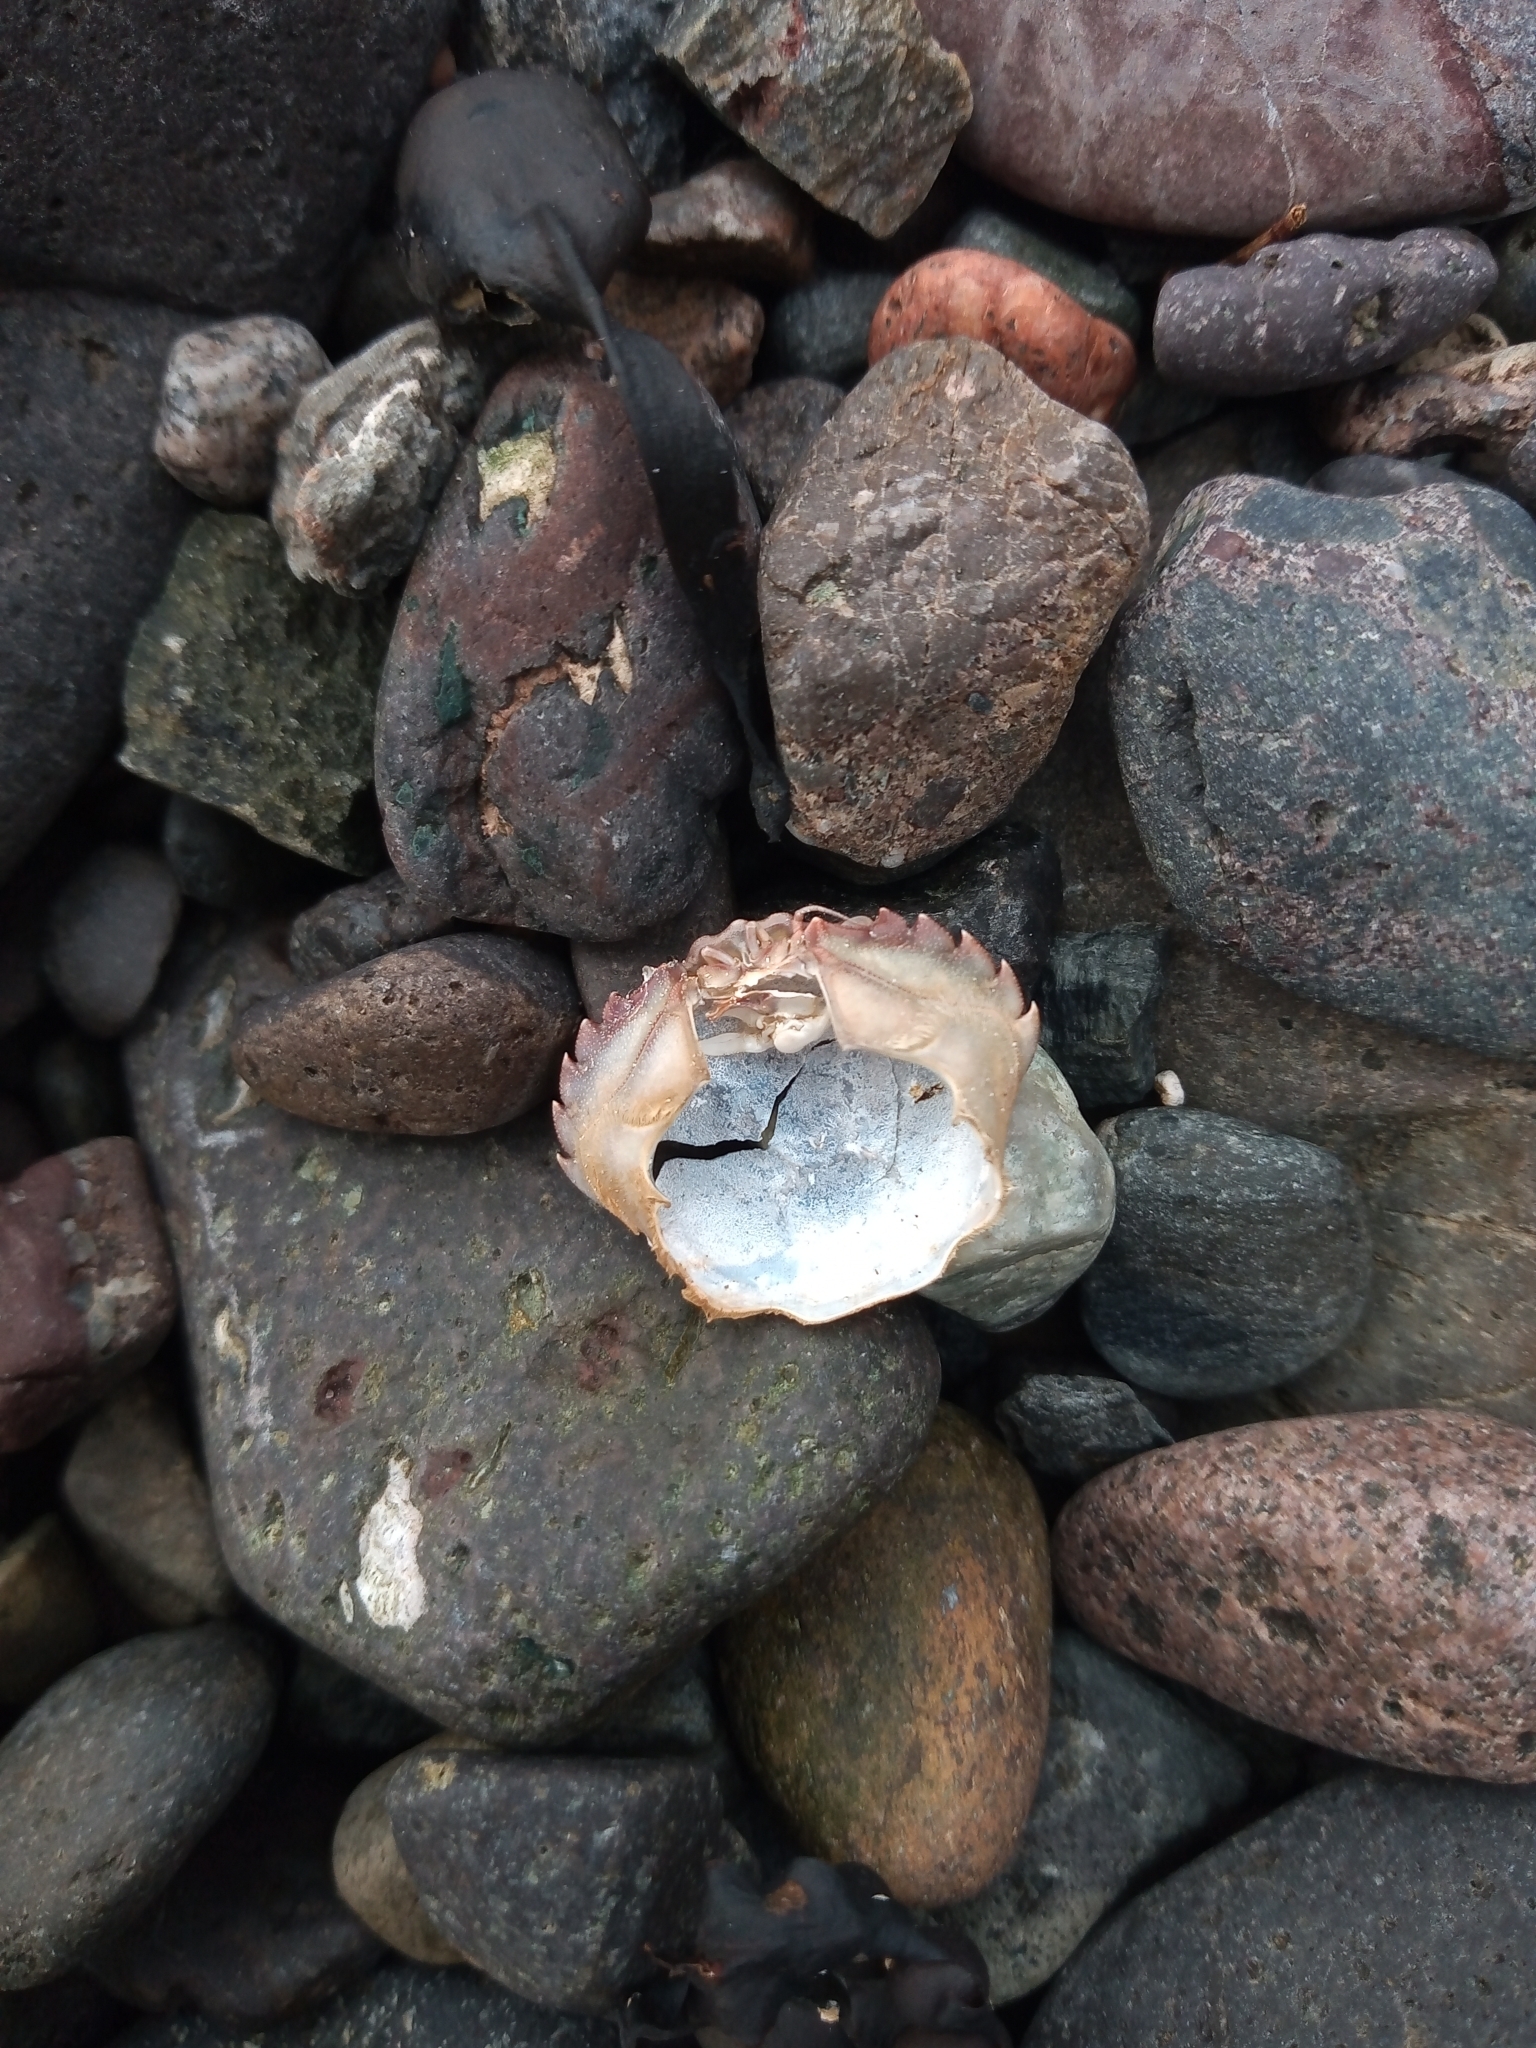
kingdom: Animalia
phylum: Arthropoda
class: Malacostraca
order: Decapoda
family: Carcinidae
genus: Carcinus
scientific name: Carcinus maenas
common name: European green crab
